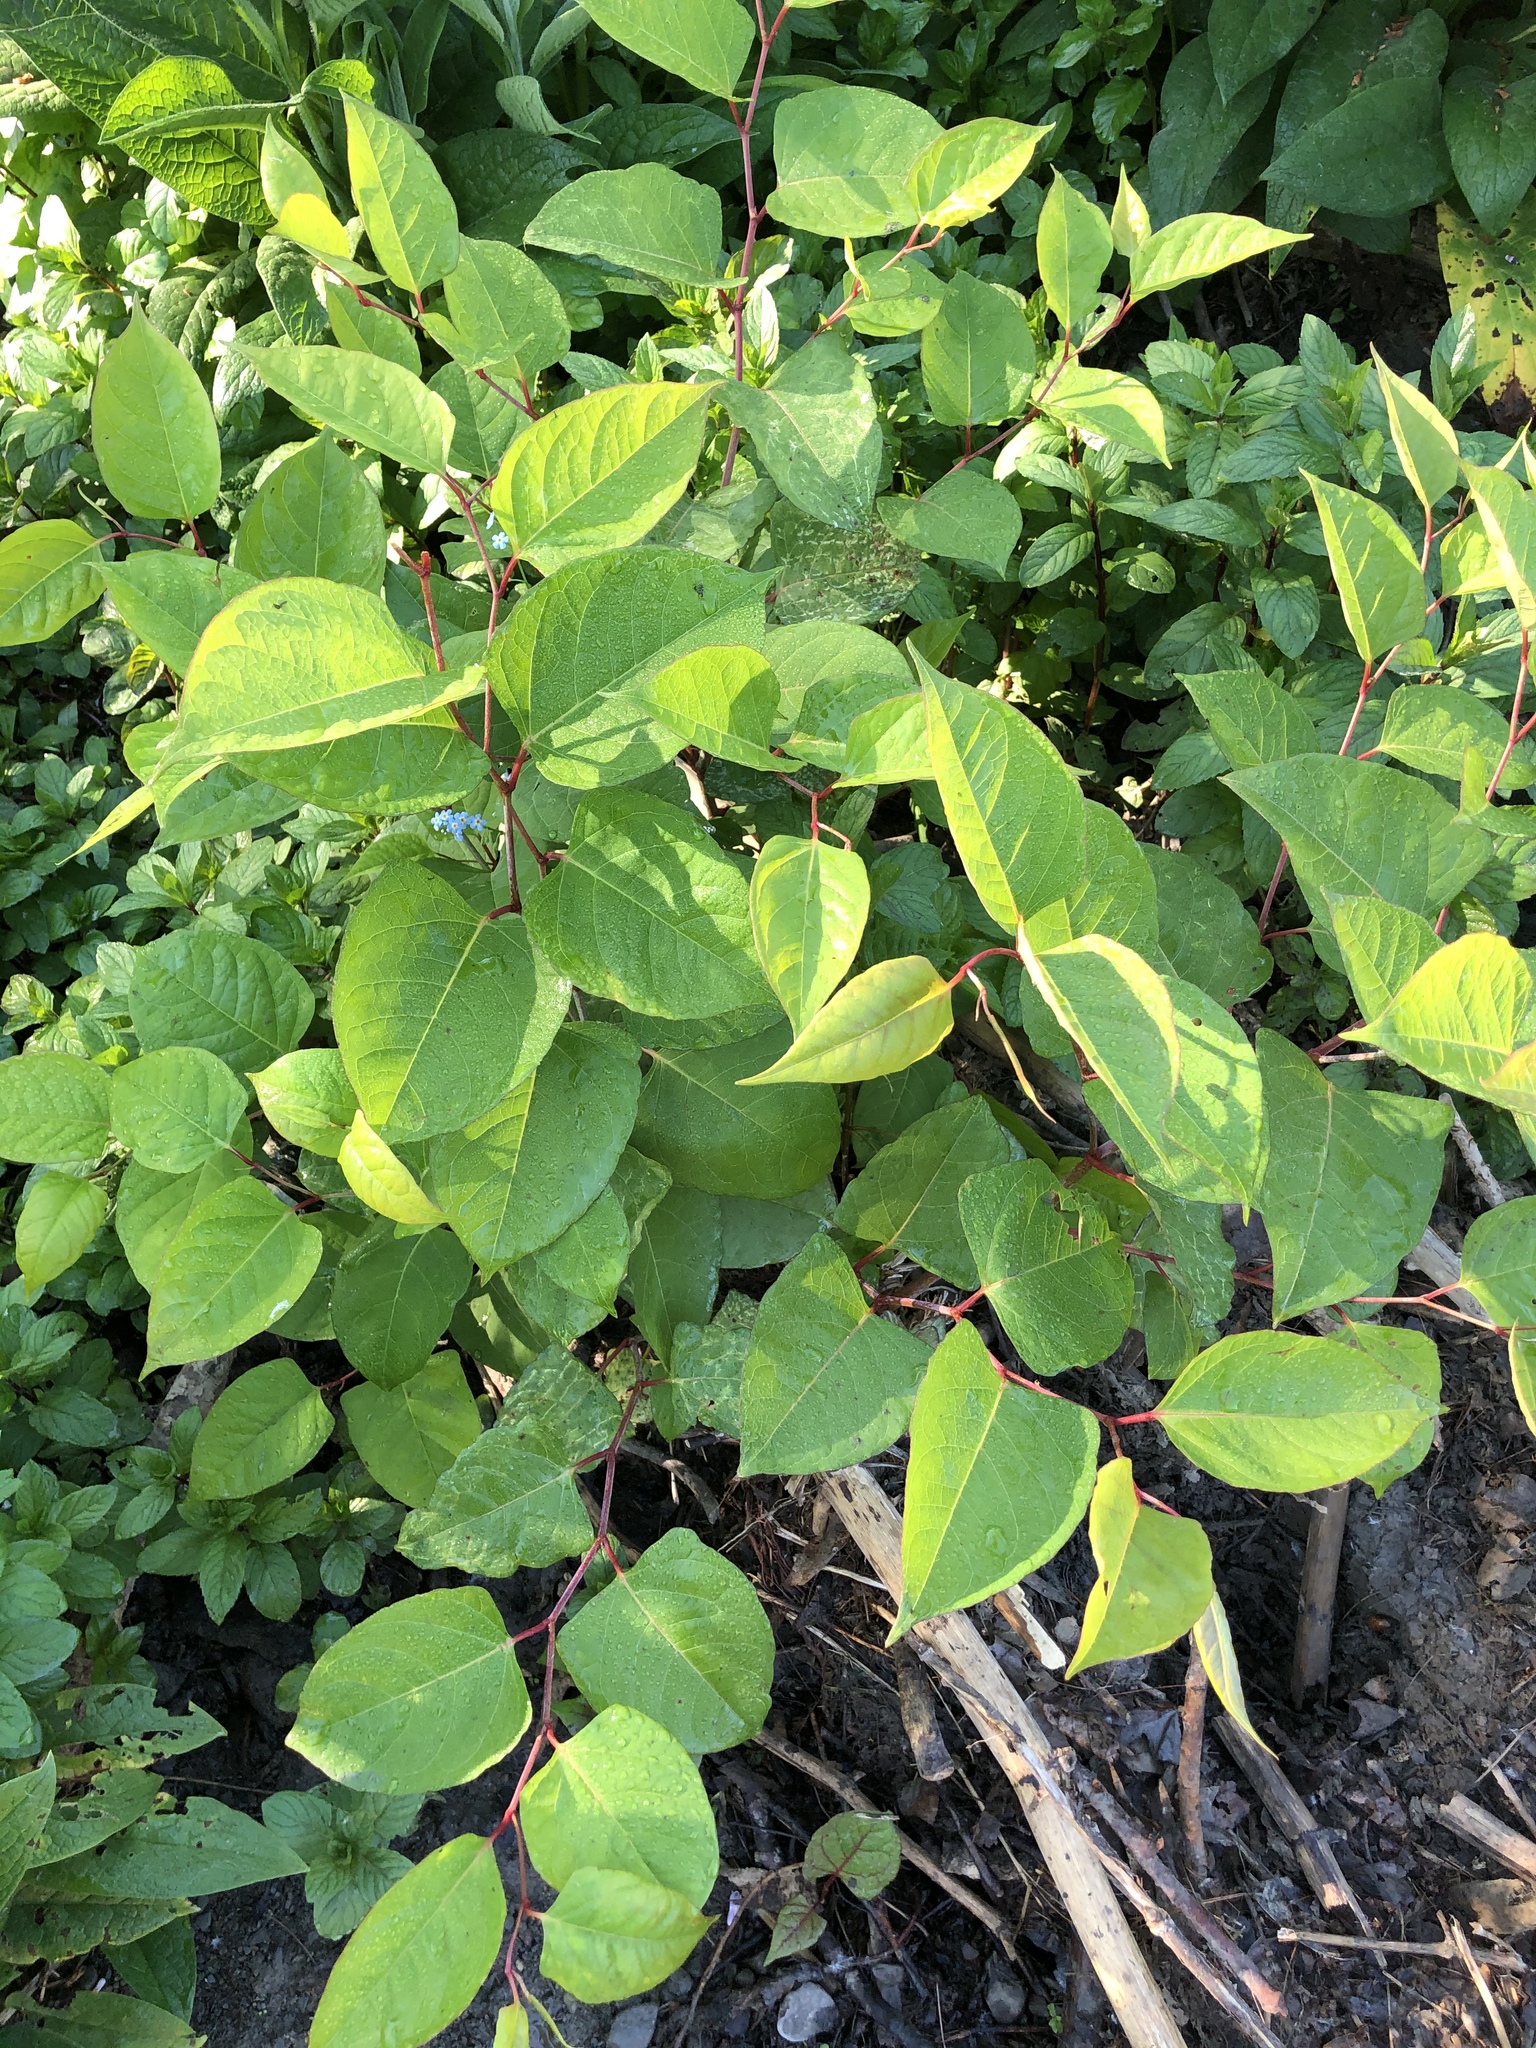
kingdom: Plantae
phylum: Tracheophyta
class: Magnoliopsida
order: Caryophyllales
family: Polygonaceae
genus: Reynoutria
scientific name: Reynoutria japonica
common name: Japanese knotweed
